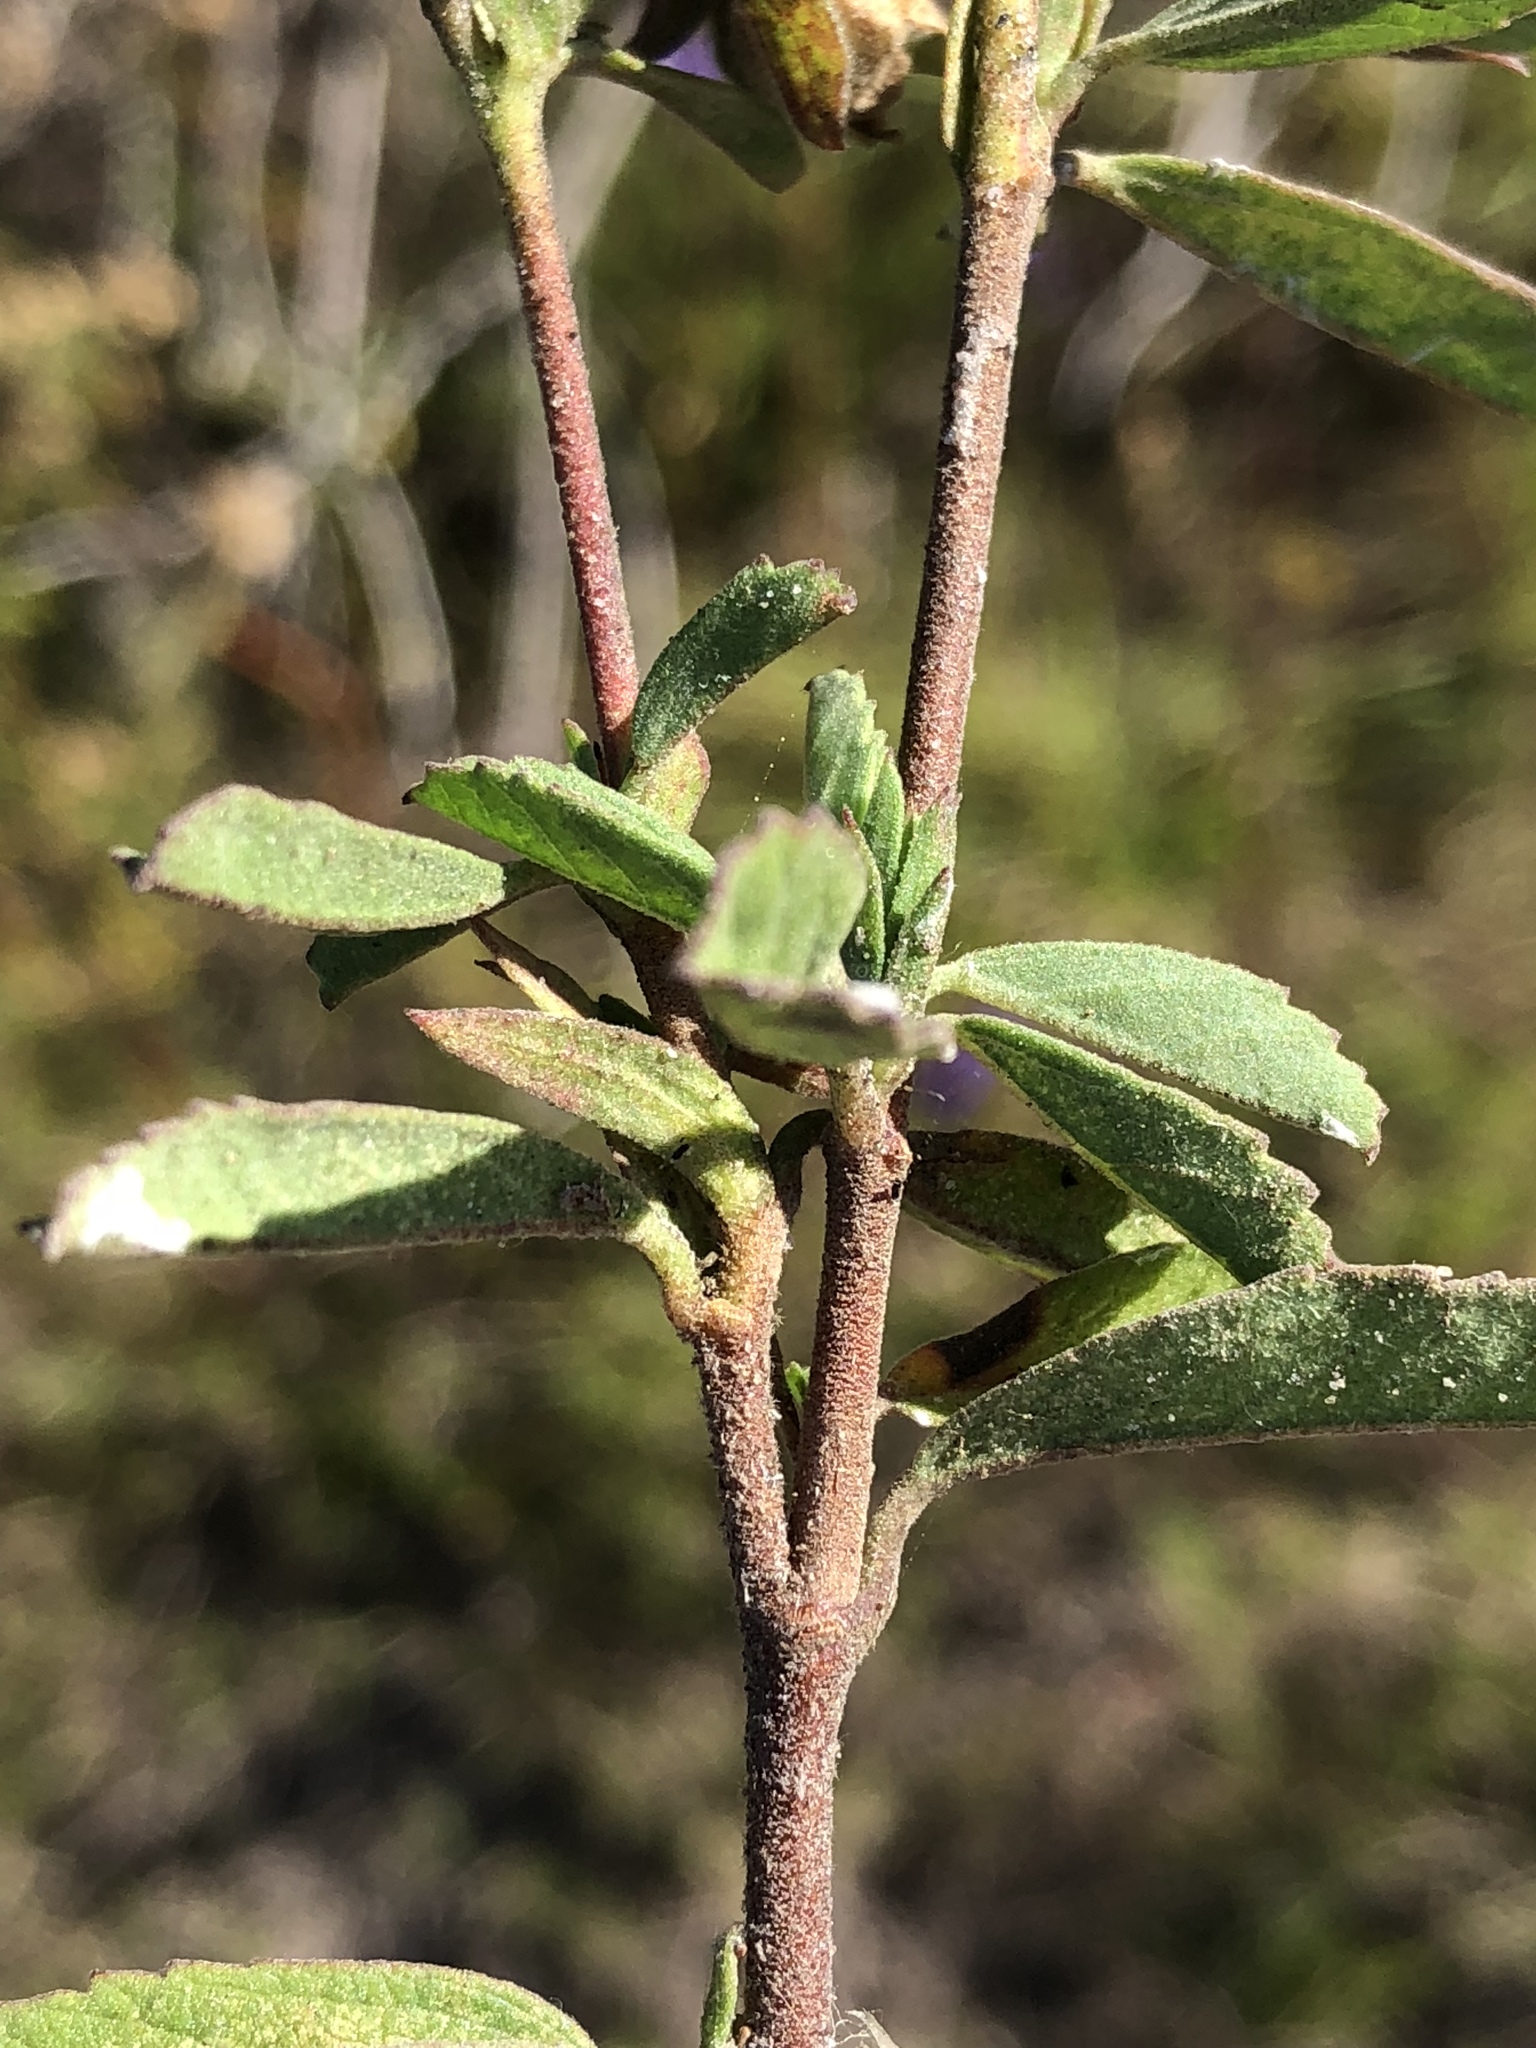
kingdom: Plantae
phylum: Tracheophyta
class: Magnoliopsida
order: Malvales
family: Malvaceae
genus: Hermannia
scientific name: Hermannia hyssopifolia
